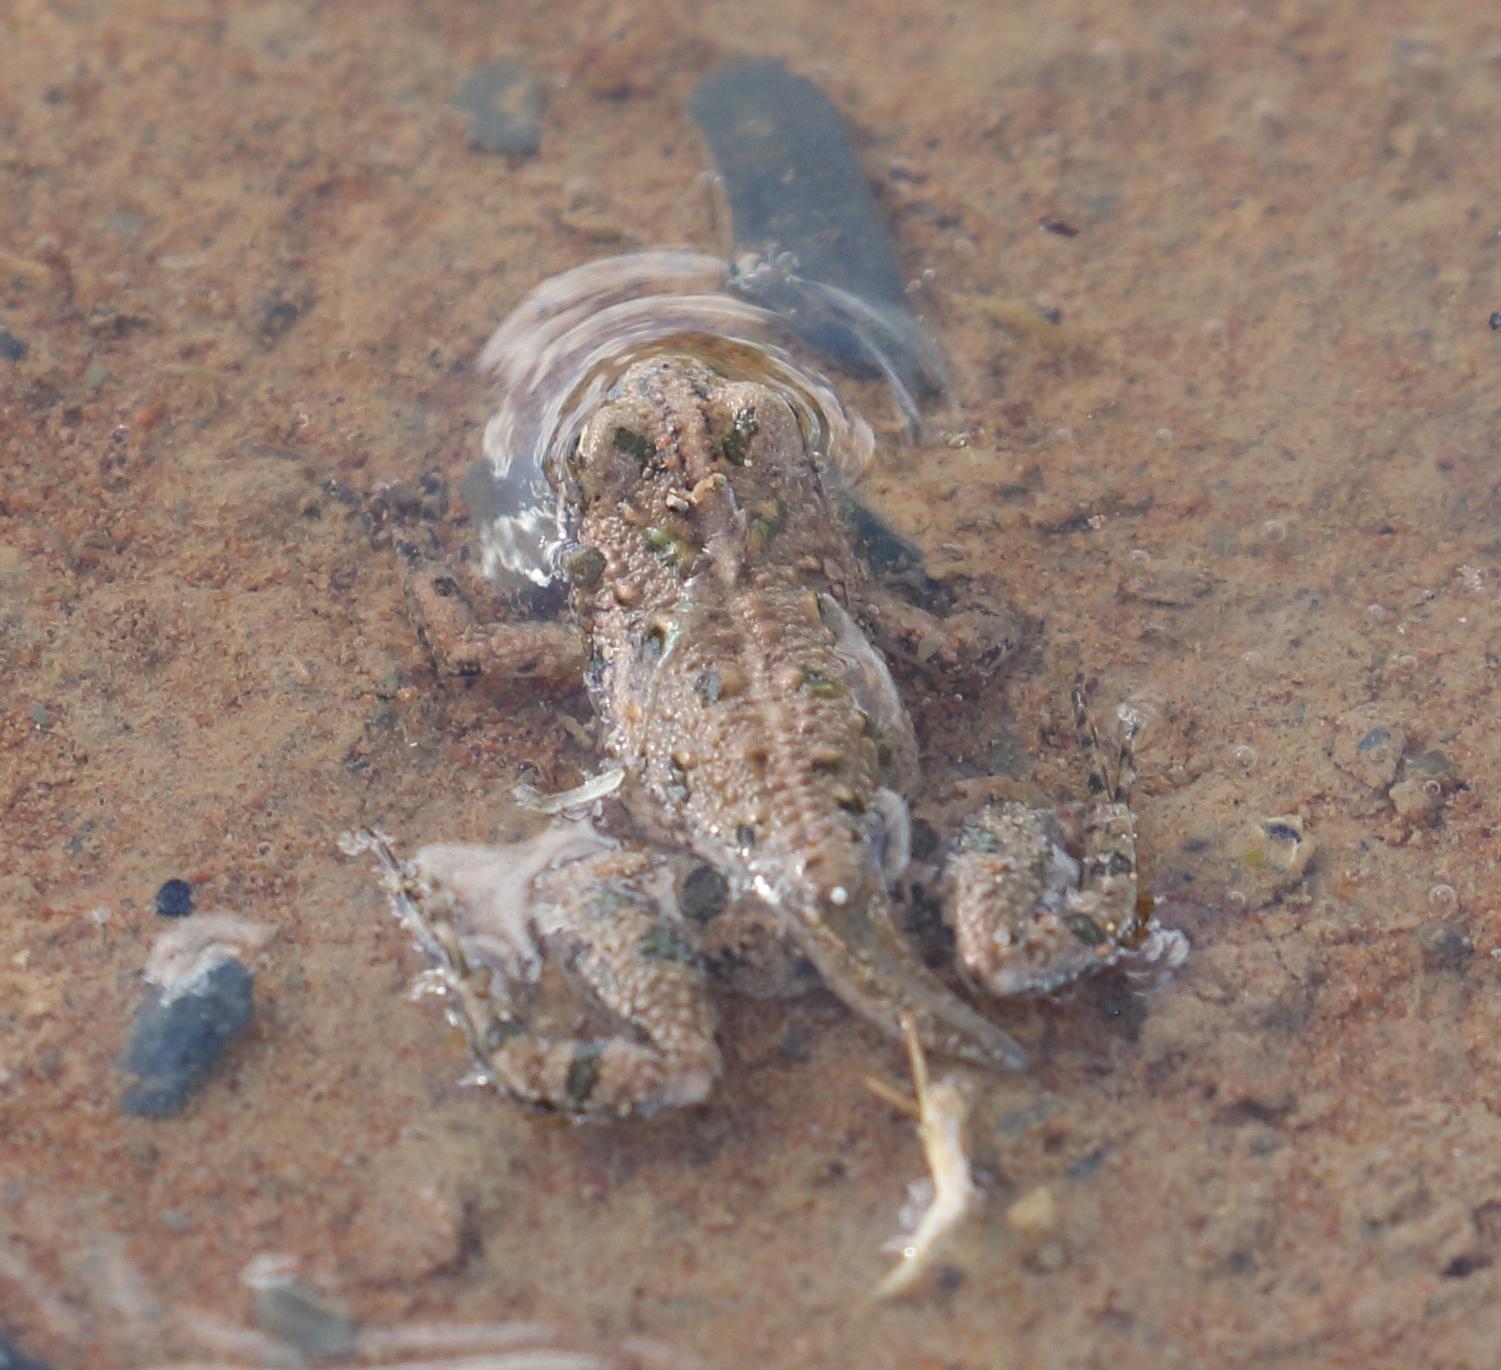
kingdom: Animalia
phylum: Chordata
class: Amphibia
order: Anura
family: Pyxicephalidae
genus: Cacosternum
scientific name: Cacosternum boettgeri
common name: Boettger's frog
